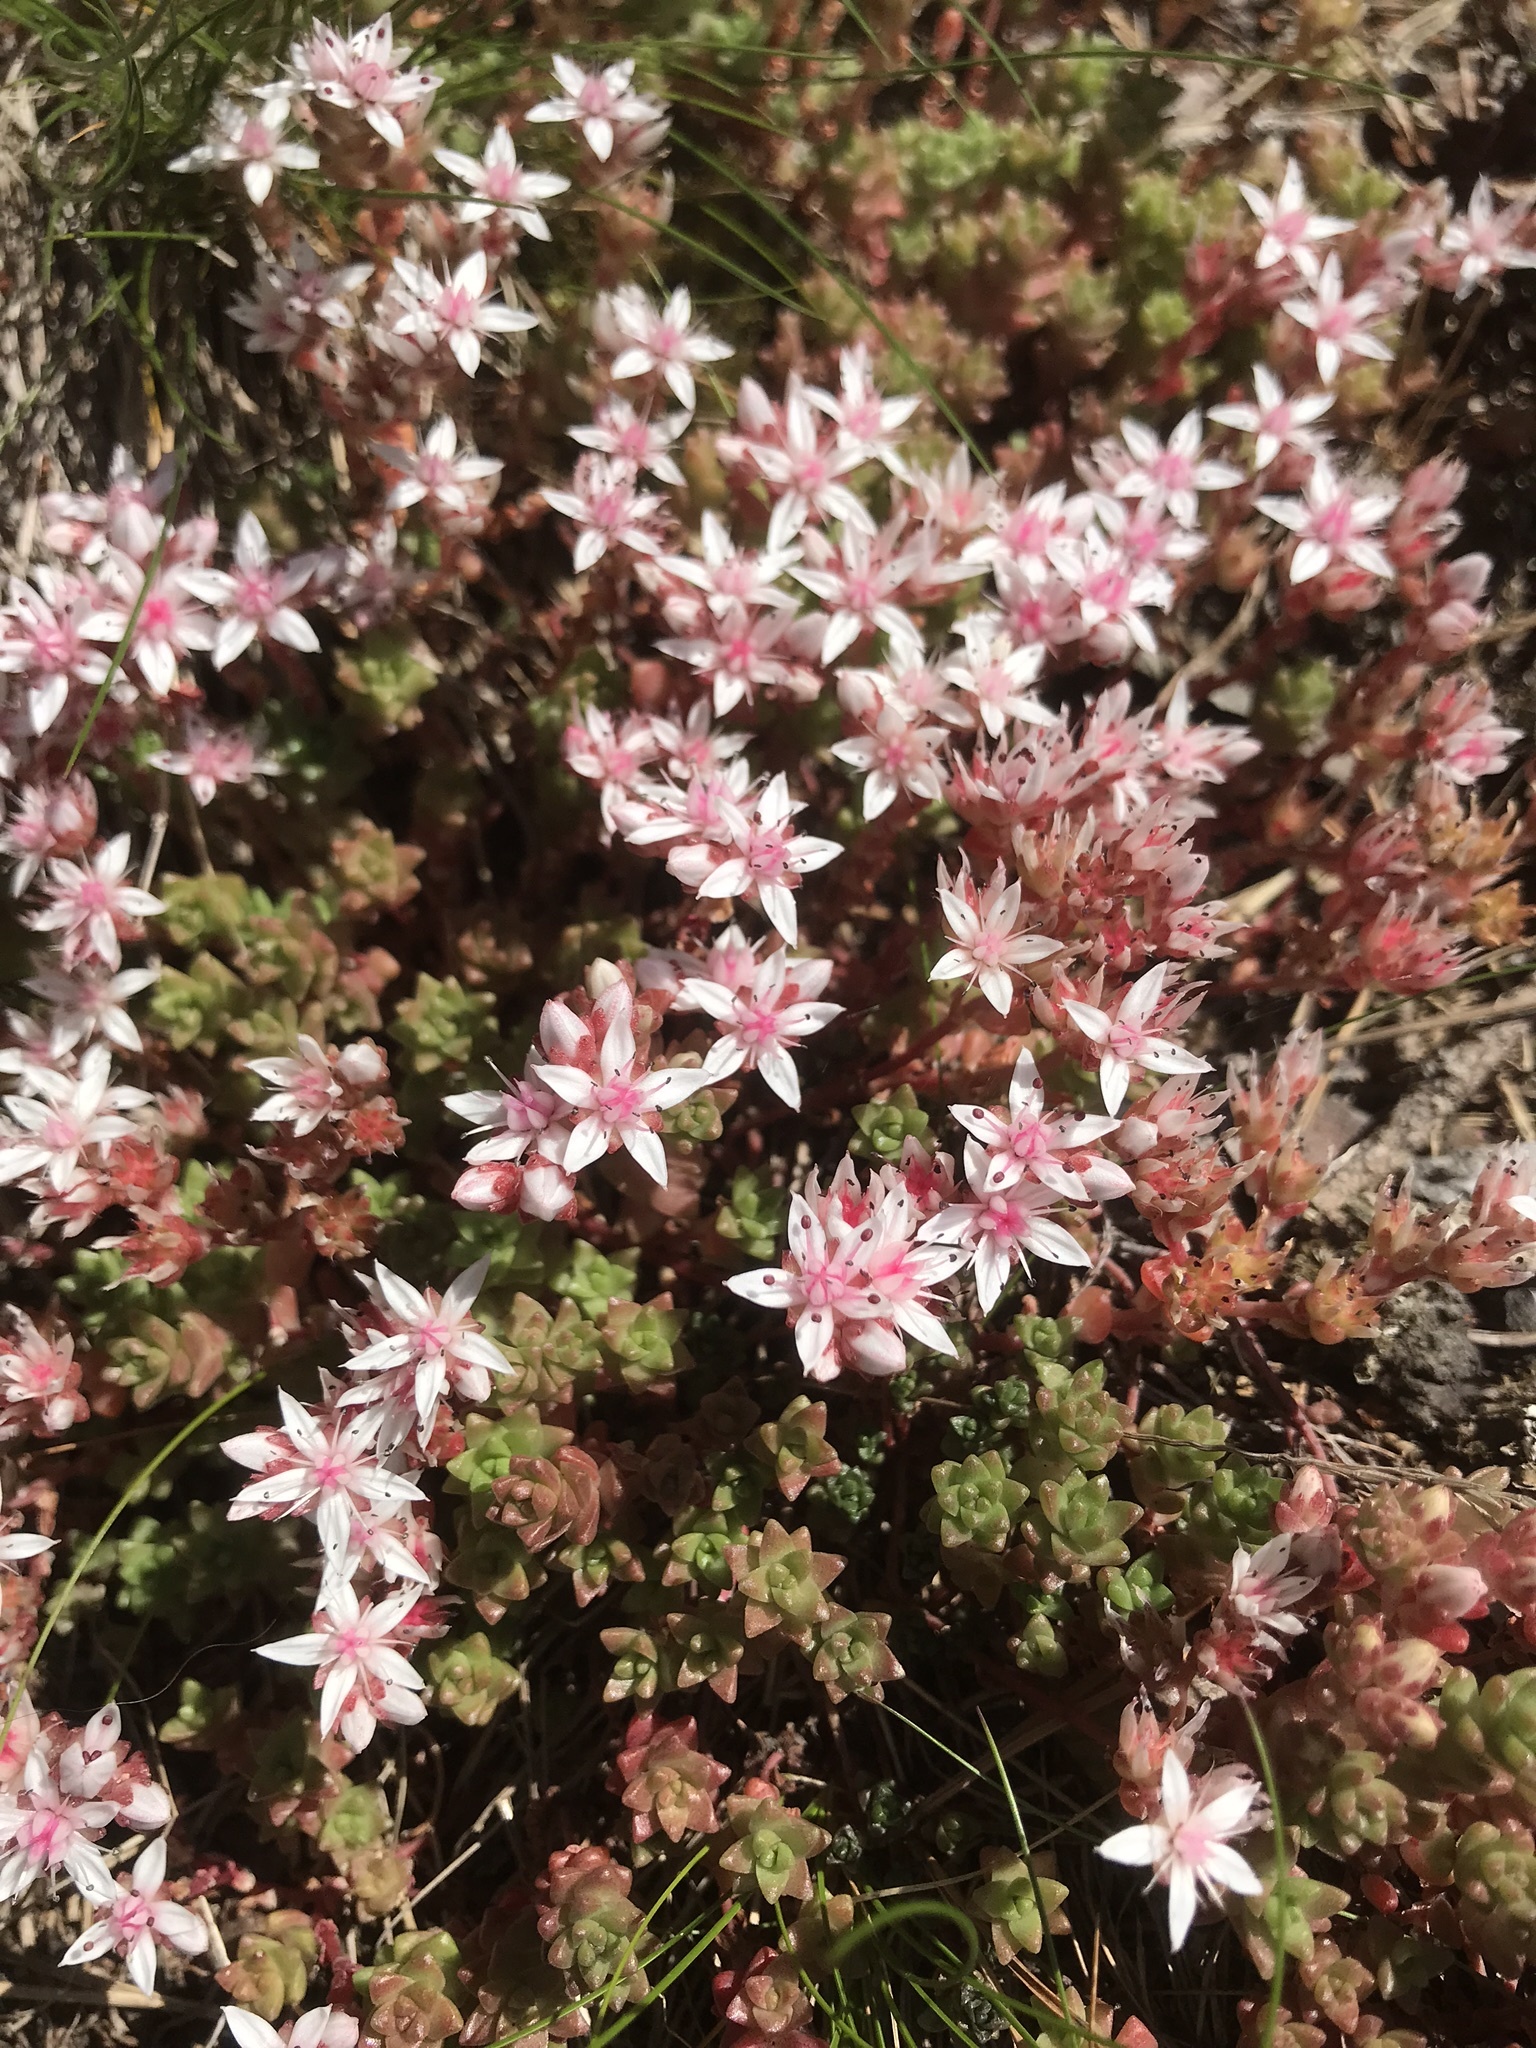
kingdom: Plantae
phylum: Tracheophyta
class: Magnoliopsida
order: Saxifragales
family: Crassulaceae
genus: Sedum
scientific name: Sedum anglicum
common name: English stonecrop
